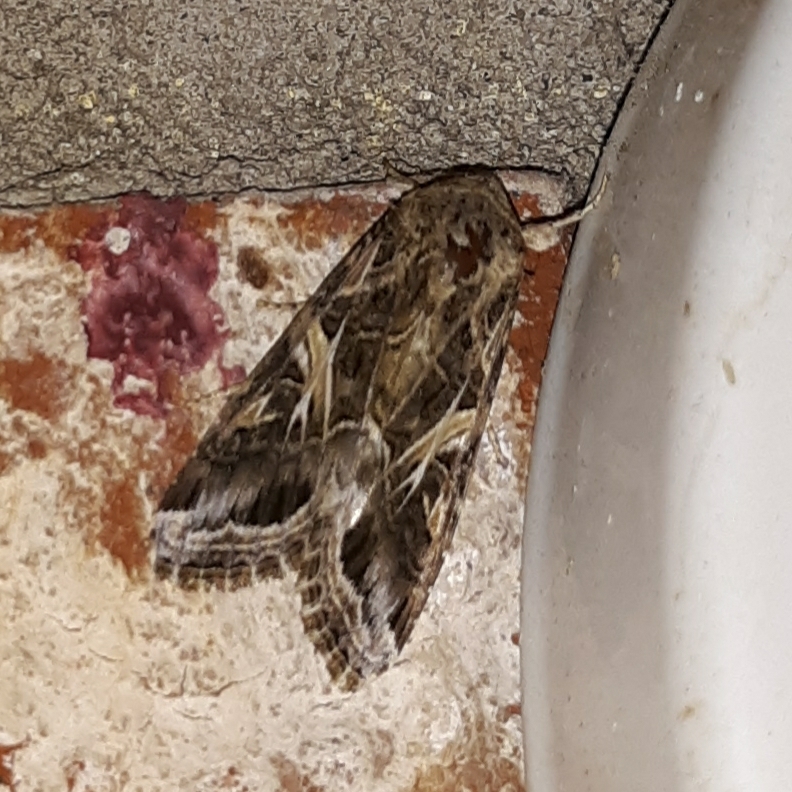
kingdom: Animalia
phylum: Arthropoda
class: Insecta
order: Lepidoptera
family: Noctuidae
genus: Spodoptera
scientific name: Spodoptera ornithogalli
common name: Yellow-striped armyworm
